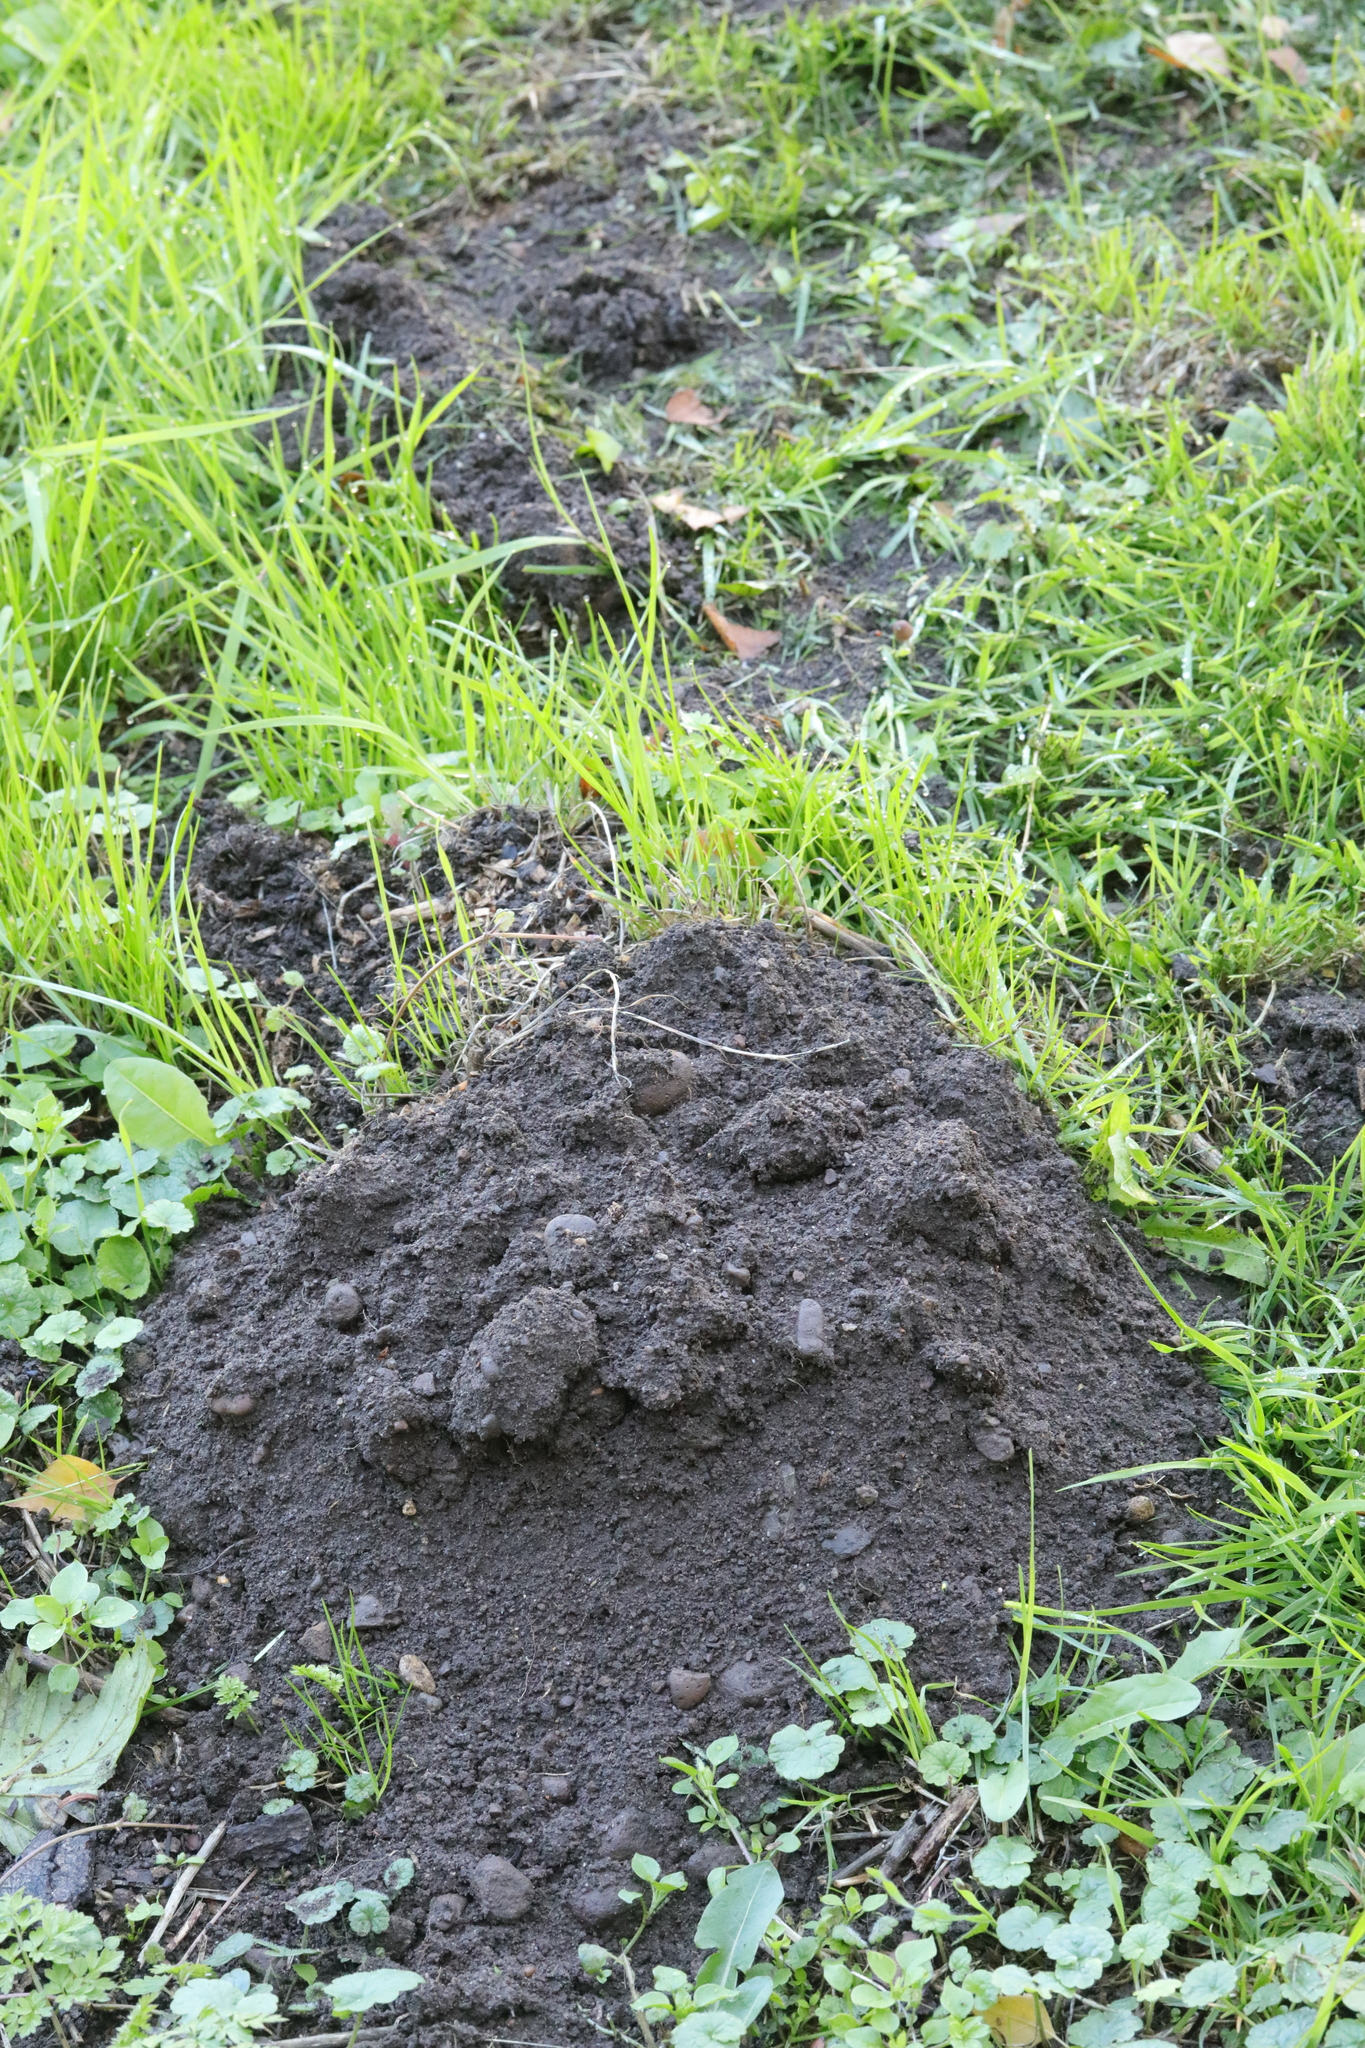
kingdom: Animalia
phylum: Chordata
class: Mammalia
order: Soricomorpha
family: Talpidae
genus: Talpa
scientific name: Talpa europaea
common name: European mole
